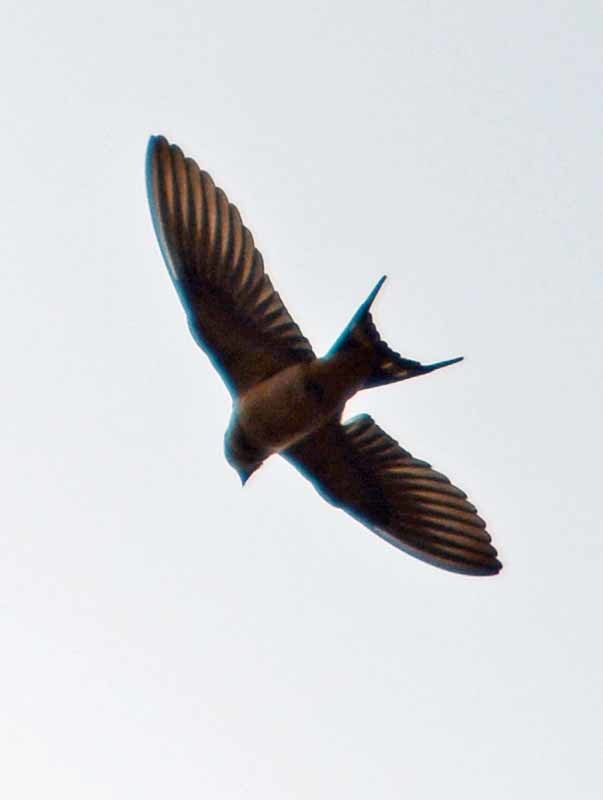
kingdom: Animalia
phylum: Chordata
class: Aves
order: Passeriformes
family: Hirundinidae
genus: Hirundo
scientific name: Hirundo rustica
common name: Barn swallow
